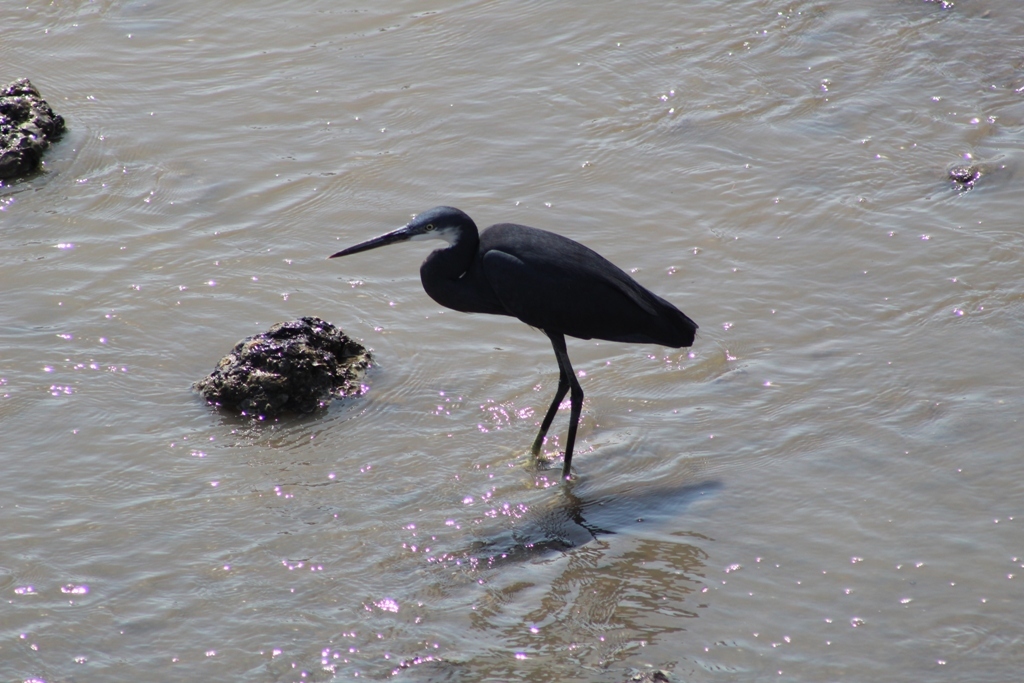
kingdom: Animalia
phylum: Chordata
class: Aves
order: Pelecaniformes
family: Ardeidae
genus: Egretta
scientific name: Egretta gularis
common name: Western reef-heron
